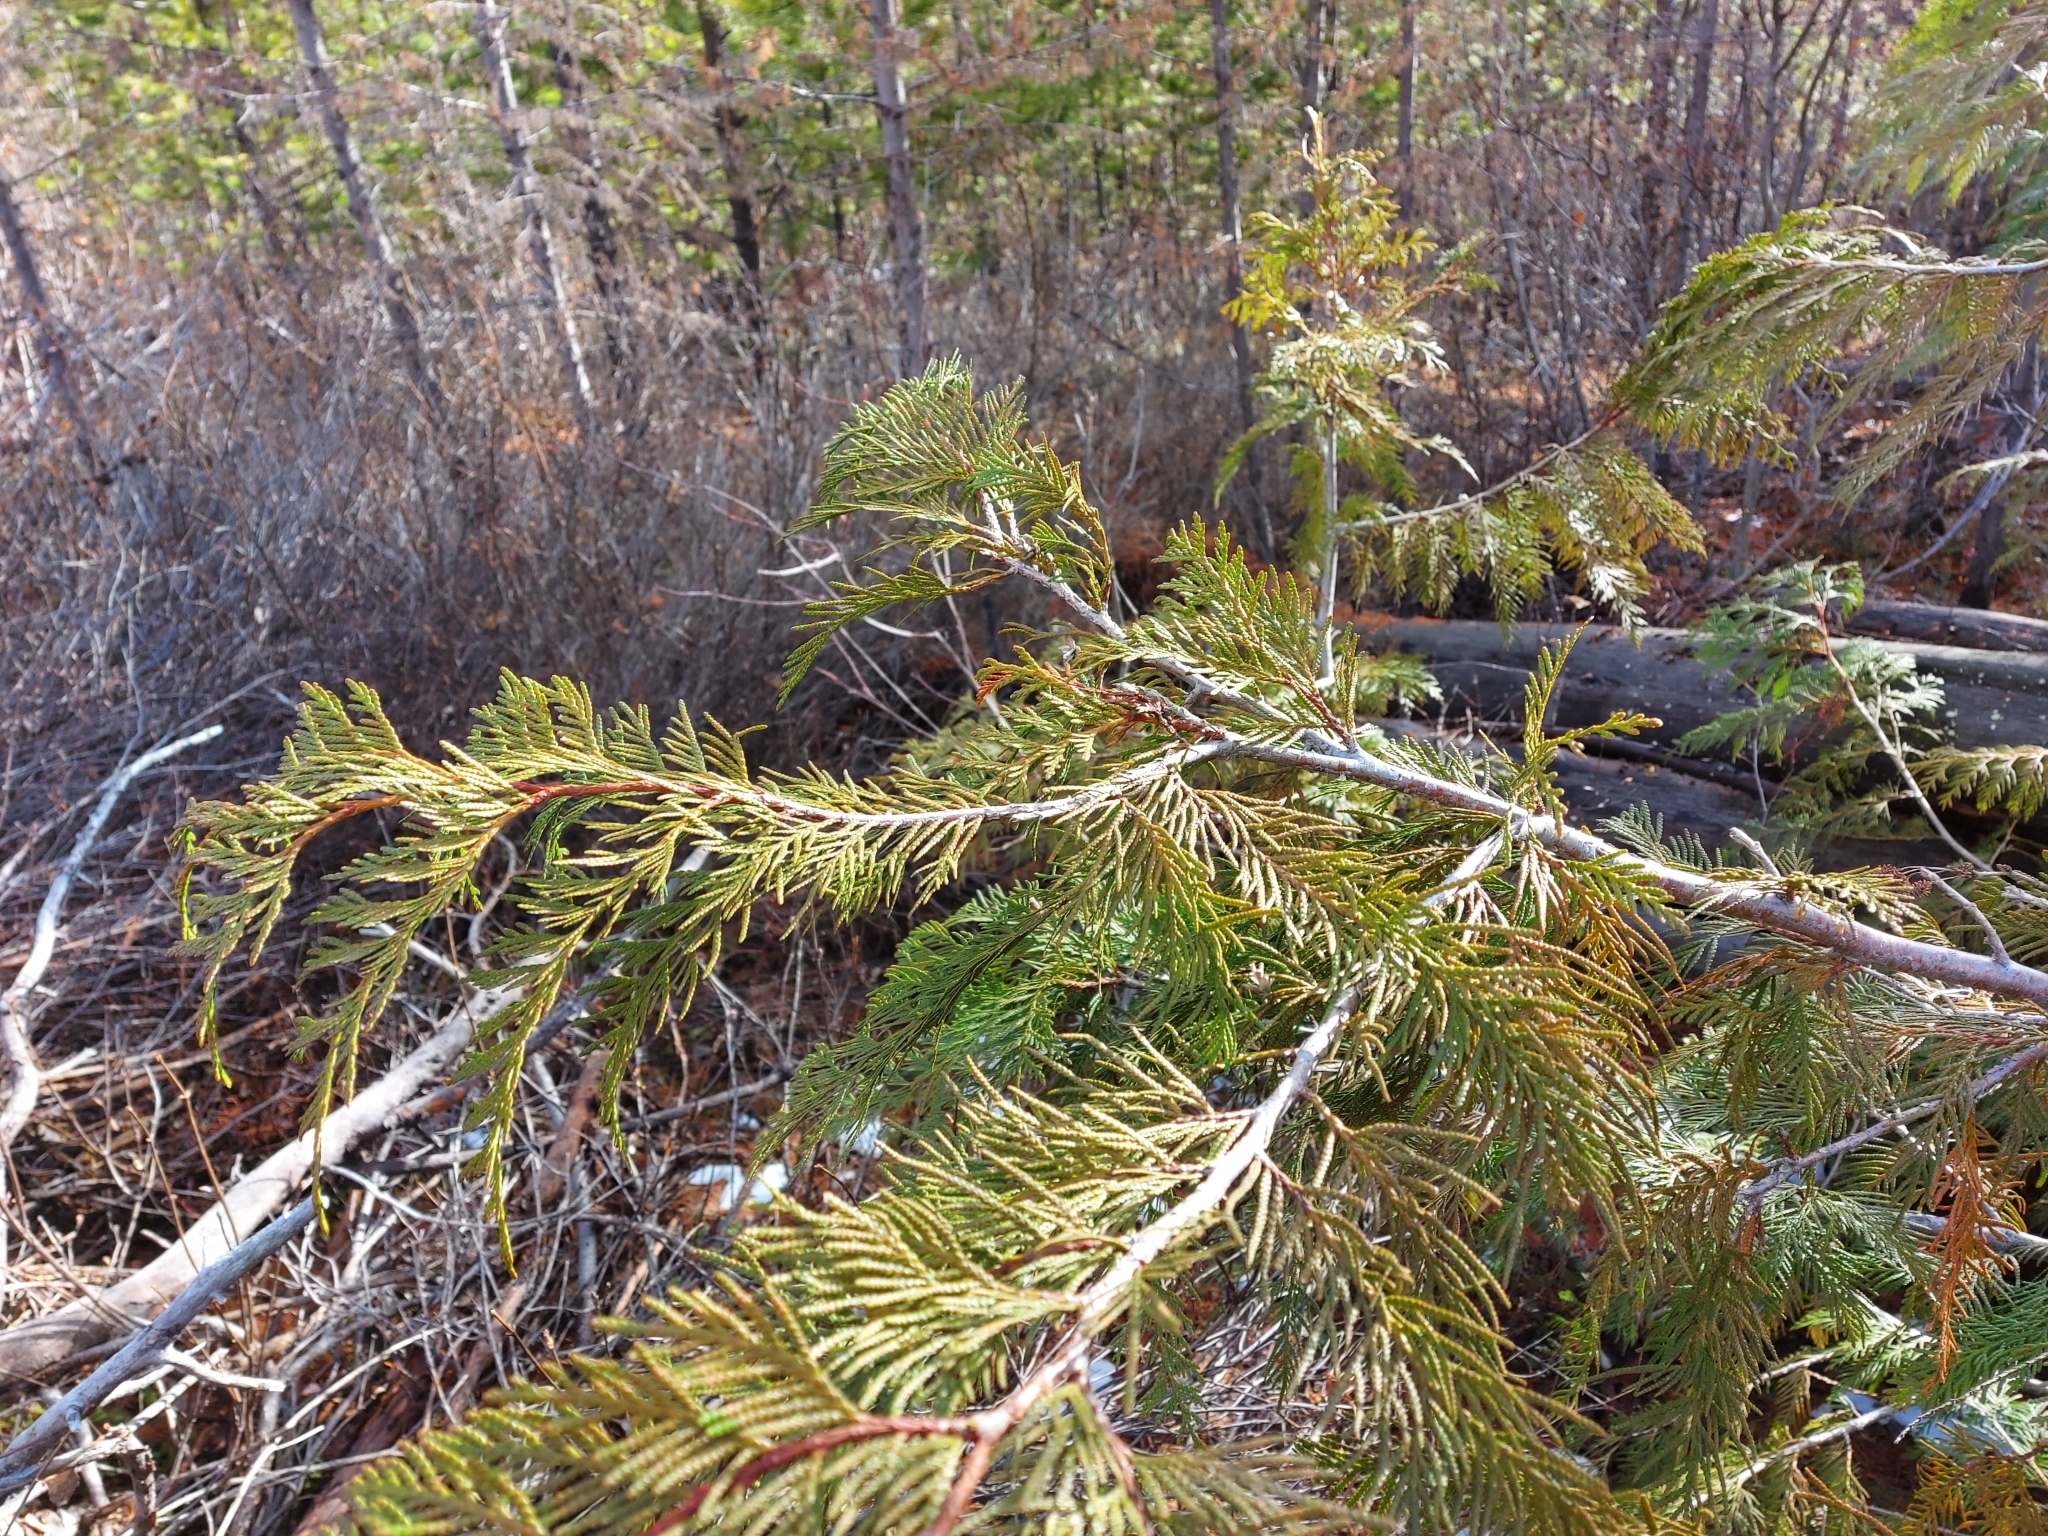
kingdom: Plantae
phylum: Tracheophyta
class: Pinopsida
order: Pinales
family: Cupressaceae
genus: Thuja
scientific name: Thuja plicata
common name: Western red-cedar
